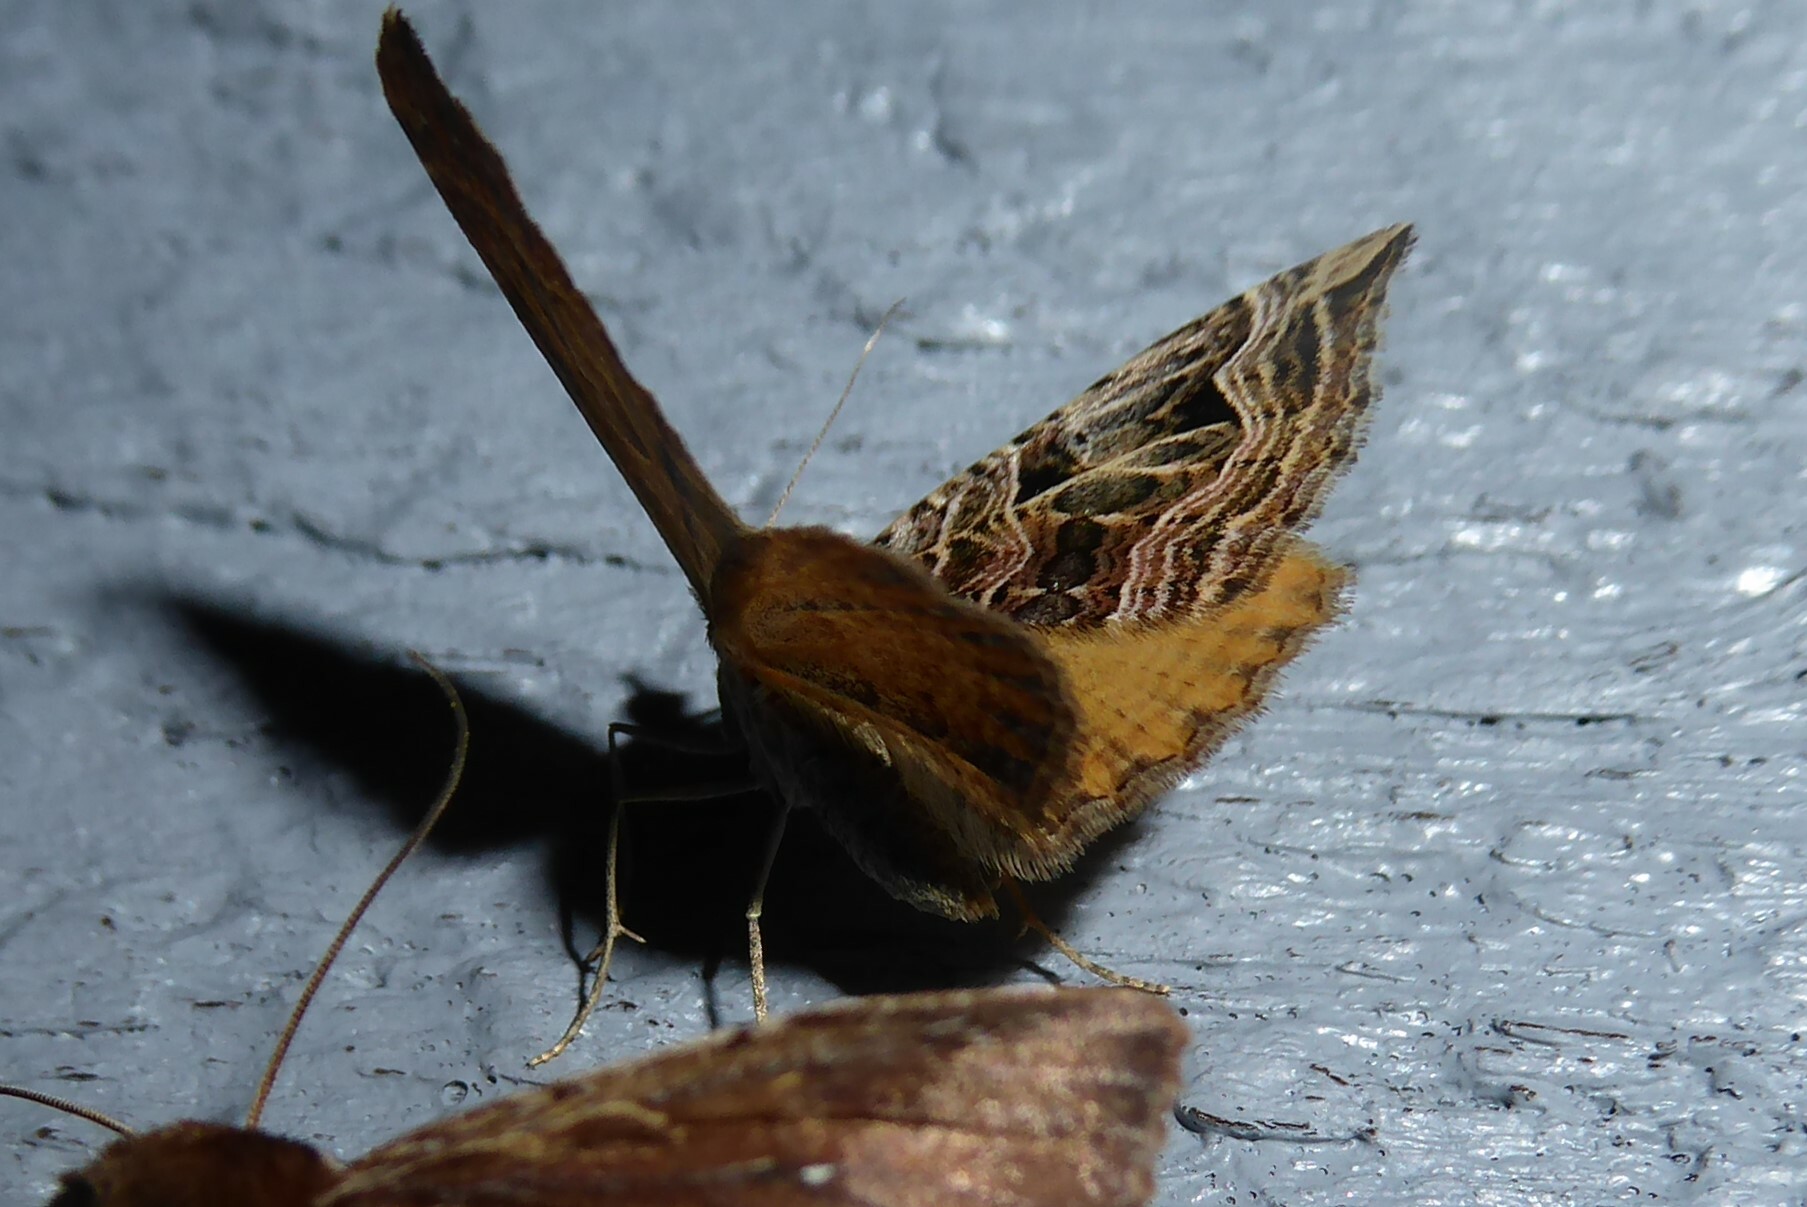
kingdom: Animalia
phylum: Arthropoda
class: Insecta
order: Lepidoptera
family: Geometridae
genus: Xanthorhoe
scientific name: Xanthorhoe semifissata
